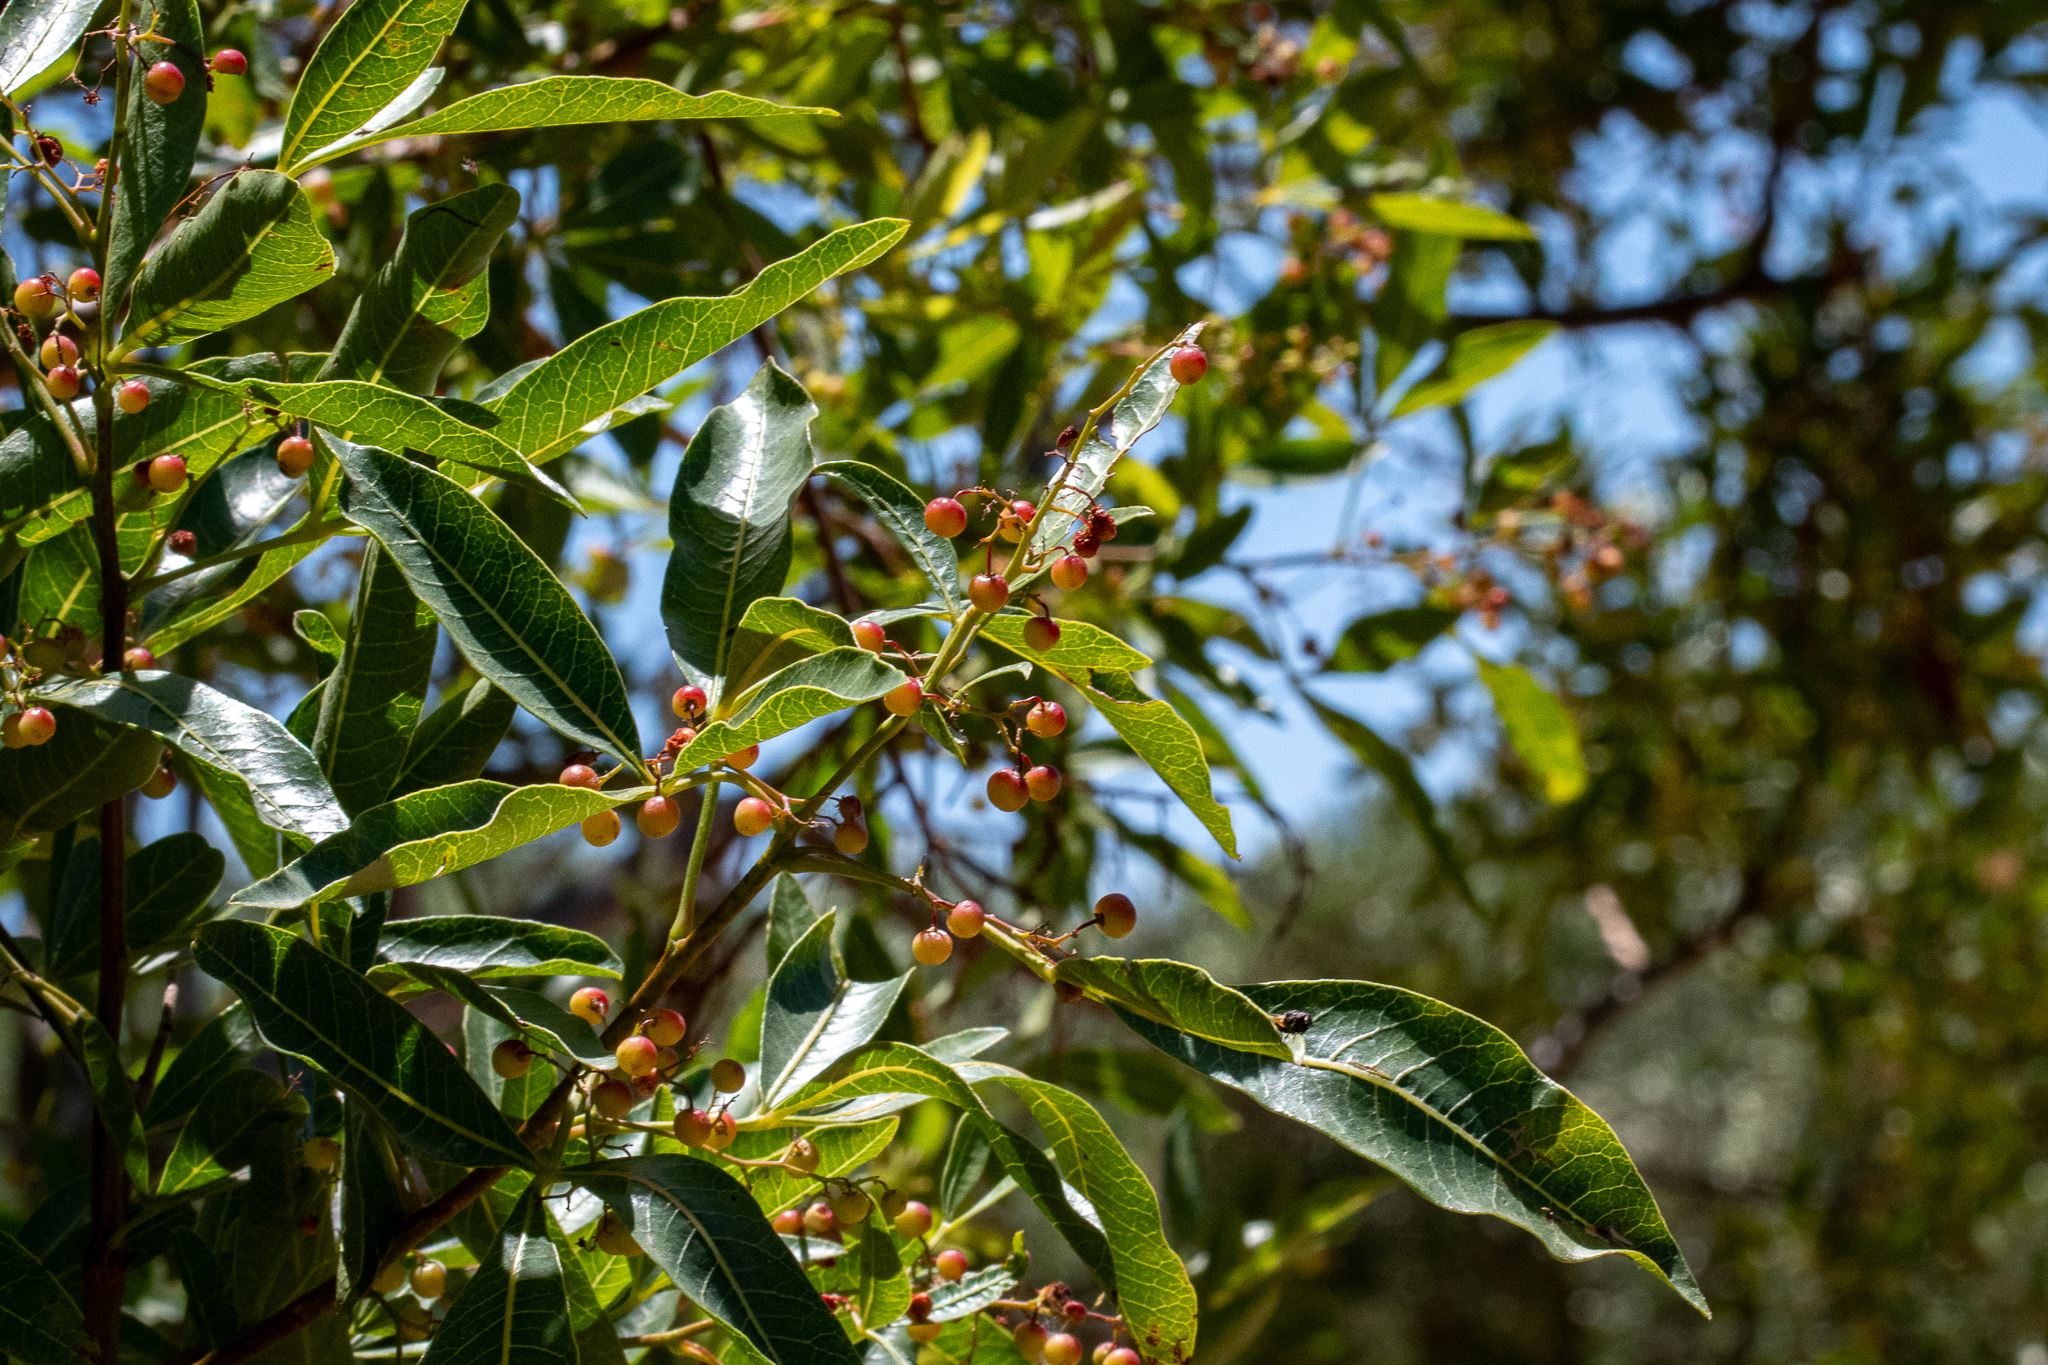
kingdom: Plantae
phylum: Tracheophyta
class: Magnoliopsida
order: Sapindales
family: Anacardiaceae
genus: Schinus
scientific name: Schinus terebinthifolia
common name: Brazilian peppertree
